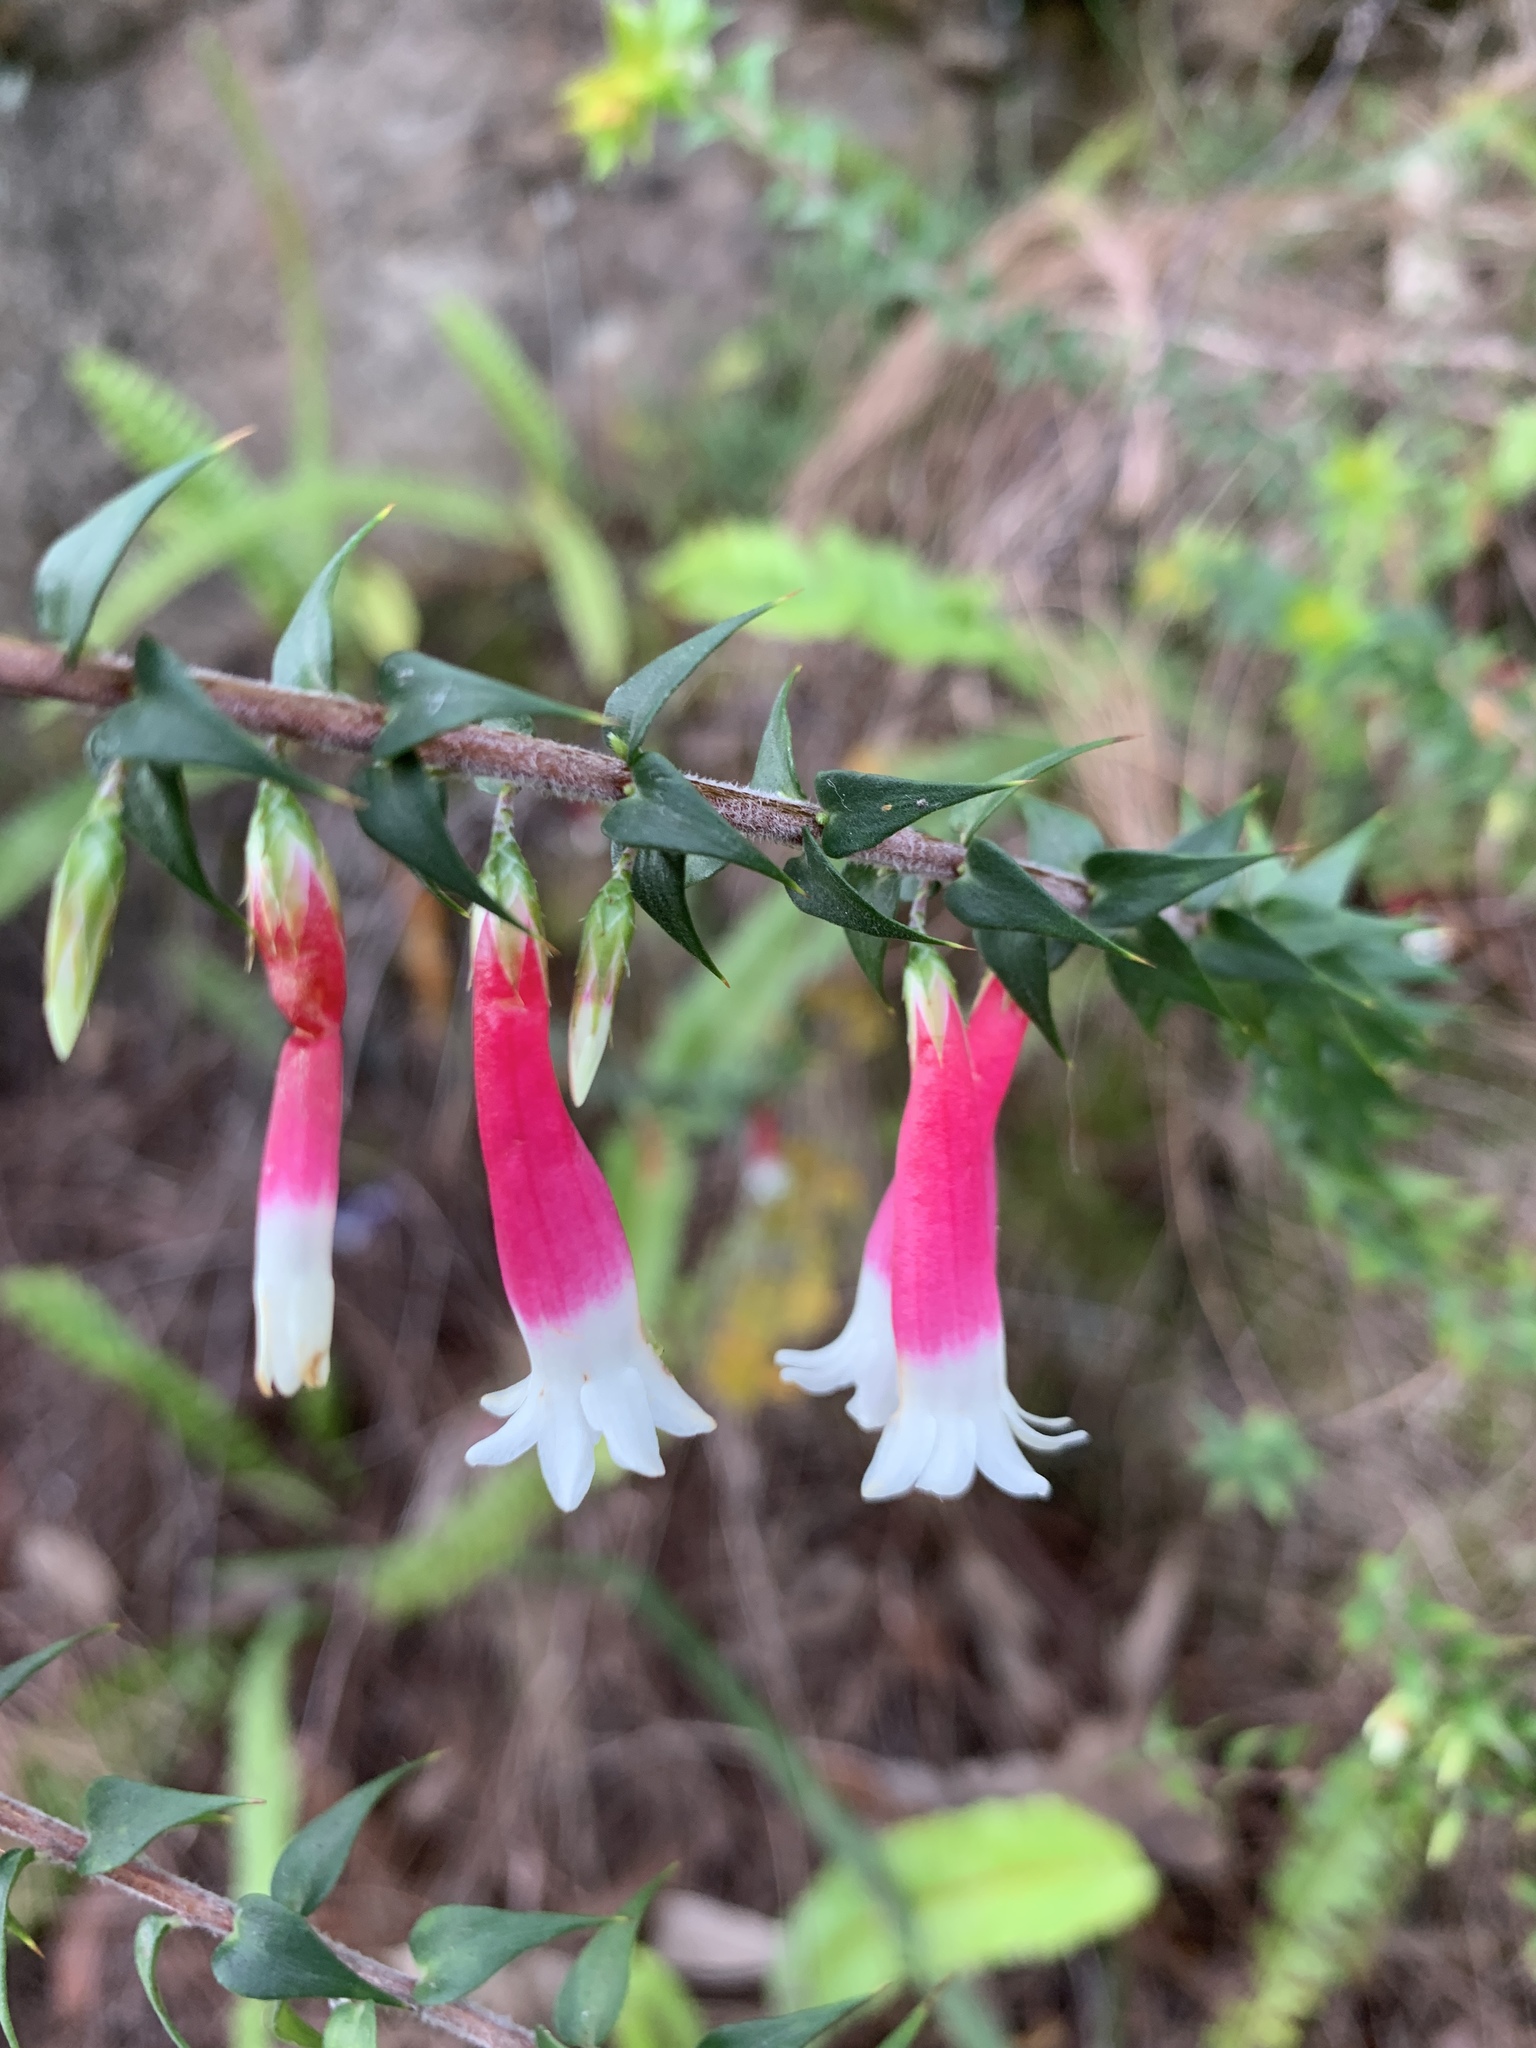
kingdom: Plantae
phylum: Tracheophyta
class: Magnoliopsida
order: Ericales
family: Ericaceae
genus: Epacris
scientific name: Epacris longiflora
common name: Fuchsia-heath
